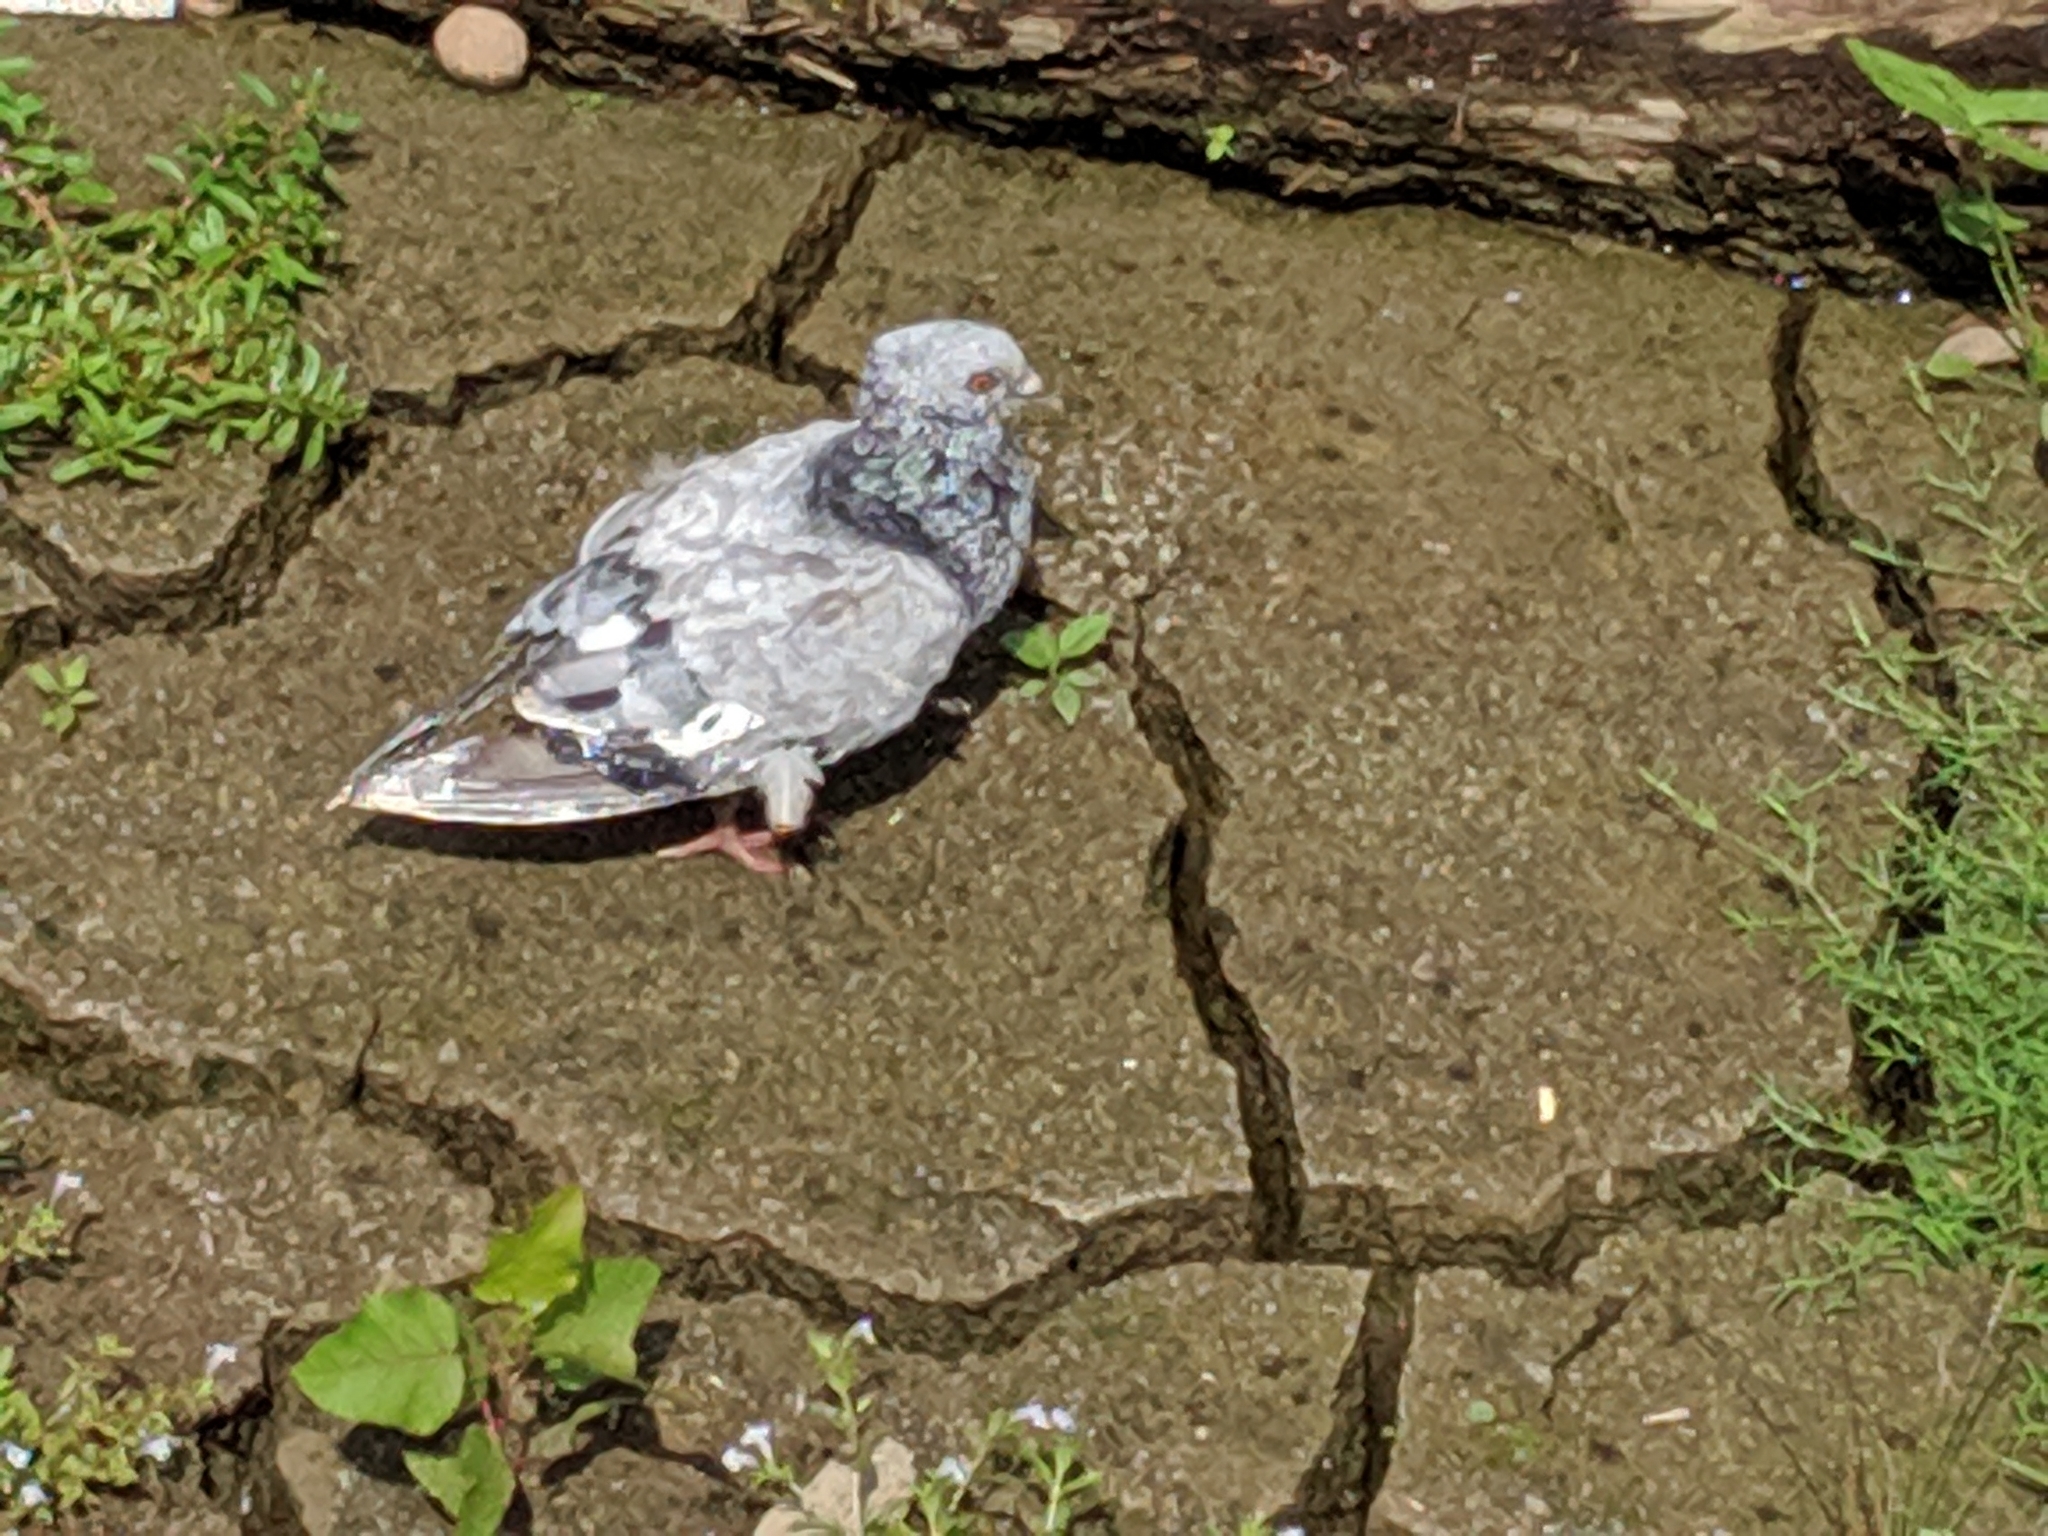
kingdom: Animalia
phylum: Chordata
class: Aves
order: Columbiformes
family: Columbidae
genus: Columba
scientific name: Columba livia
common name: Rock pigeon
